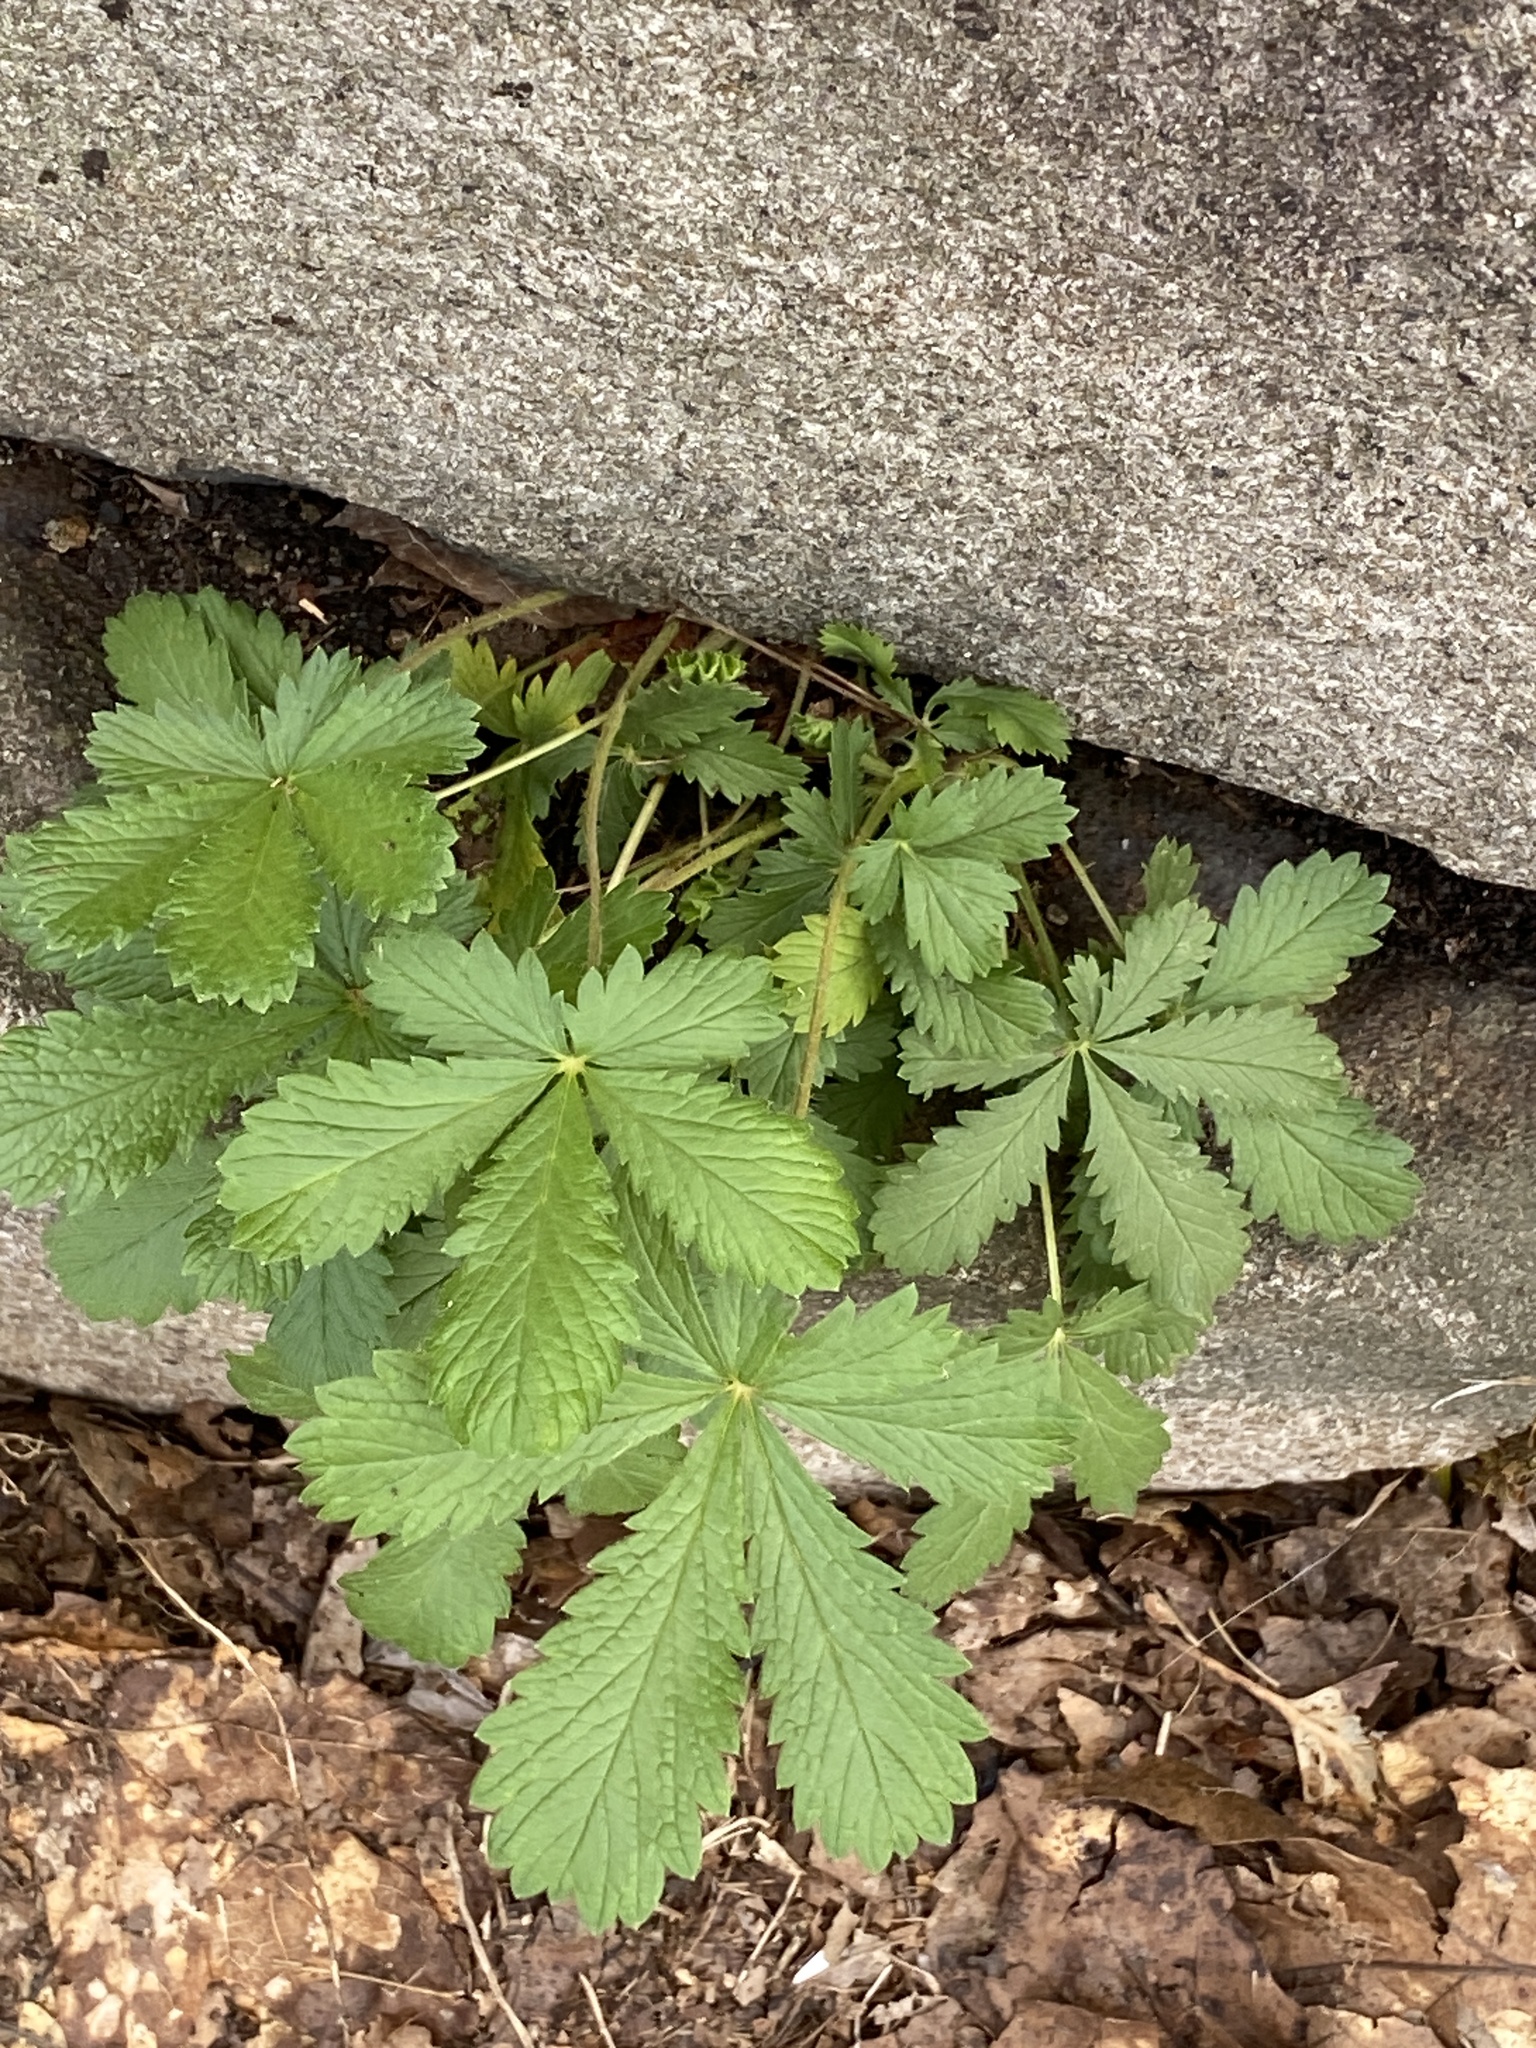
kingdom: Plantae
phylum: Tracheophyta
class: Magnoliopsida
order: Rosales
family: Rosaceae
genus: Potentilla
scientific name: Potentilla recta
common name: Sulphur cinquefoil
